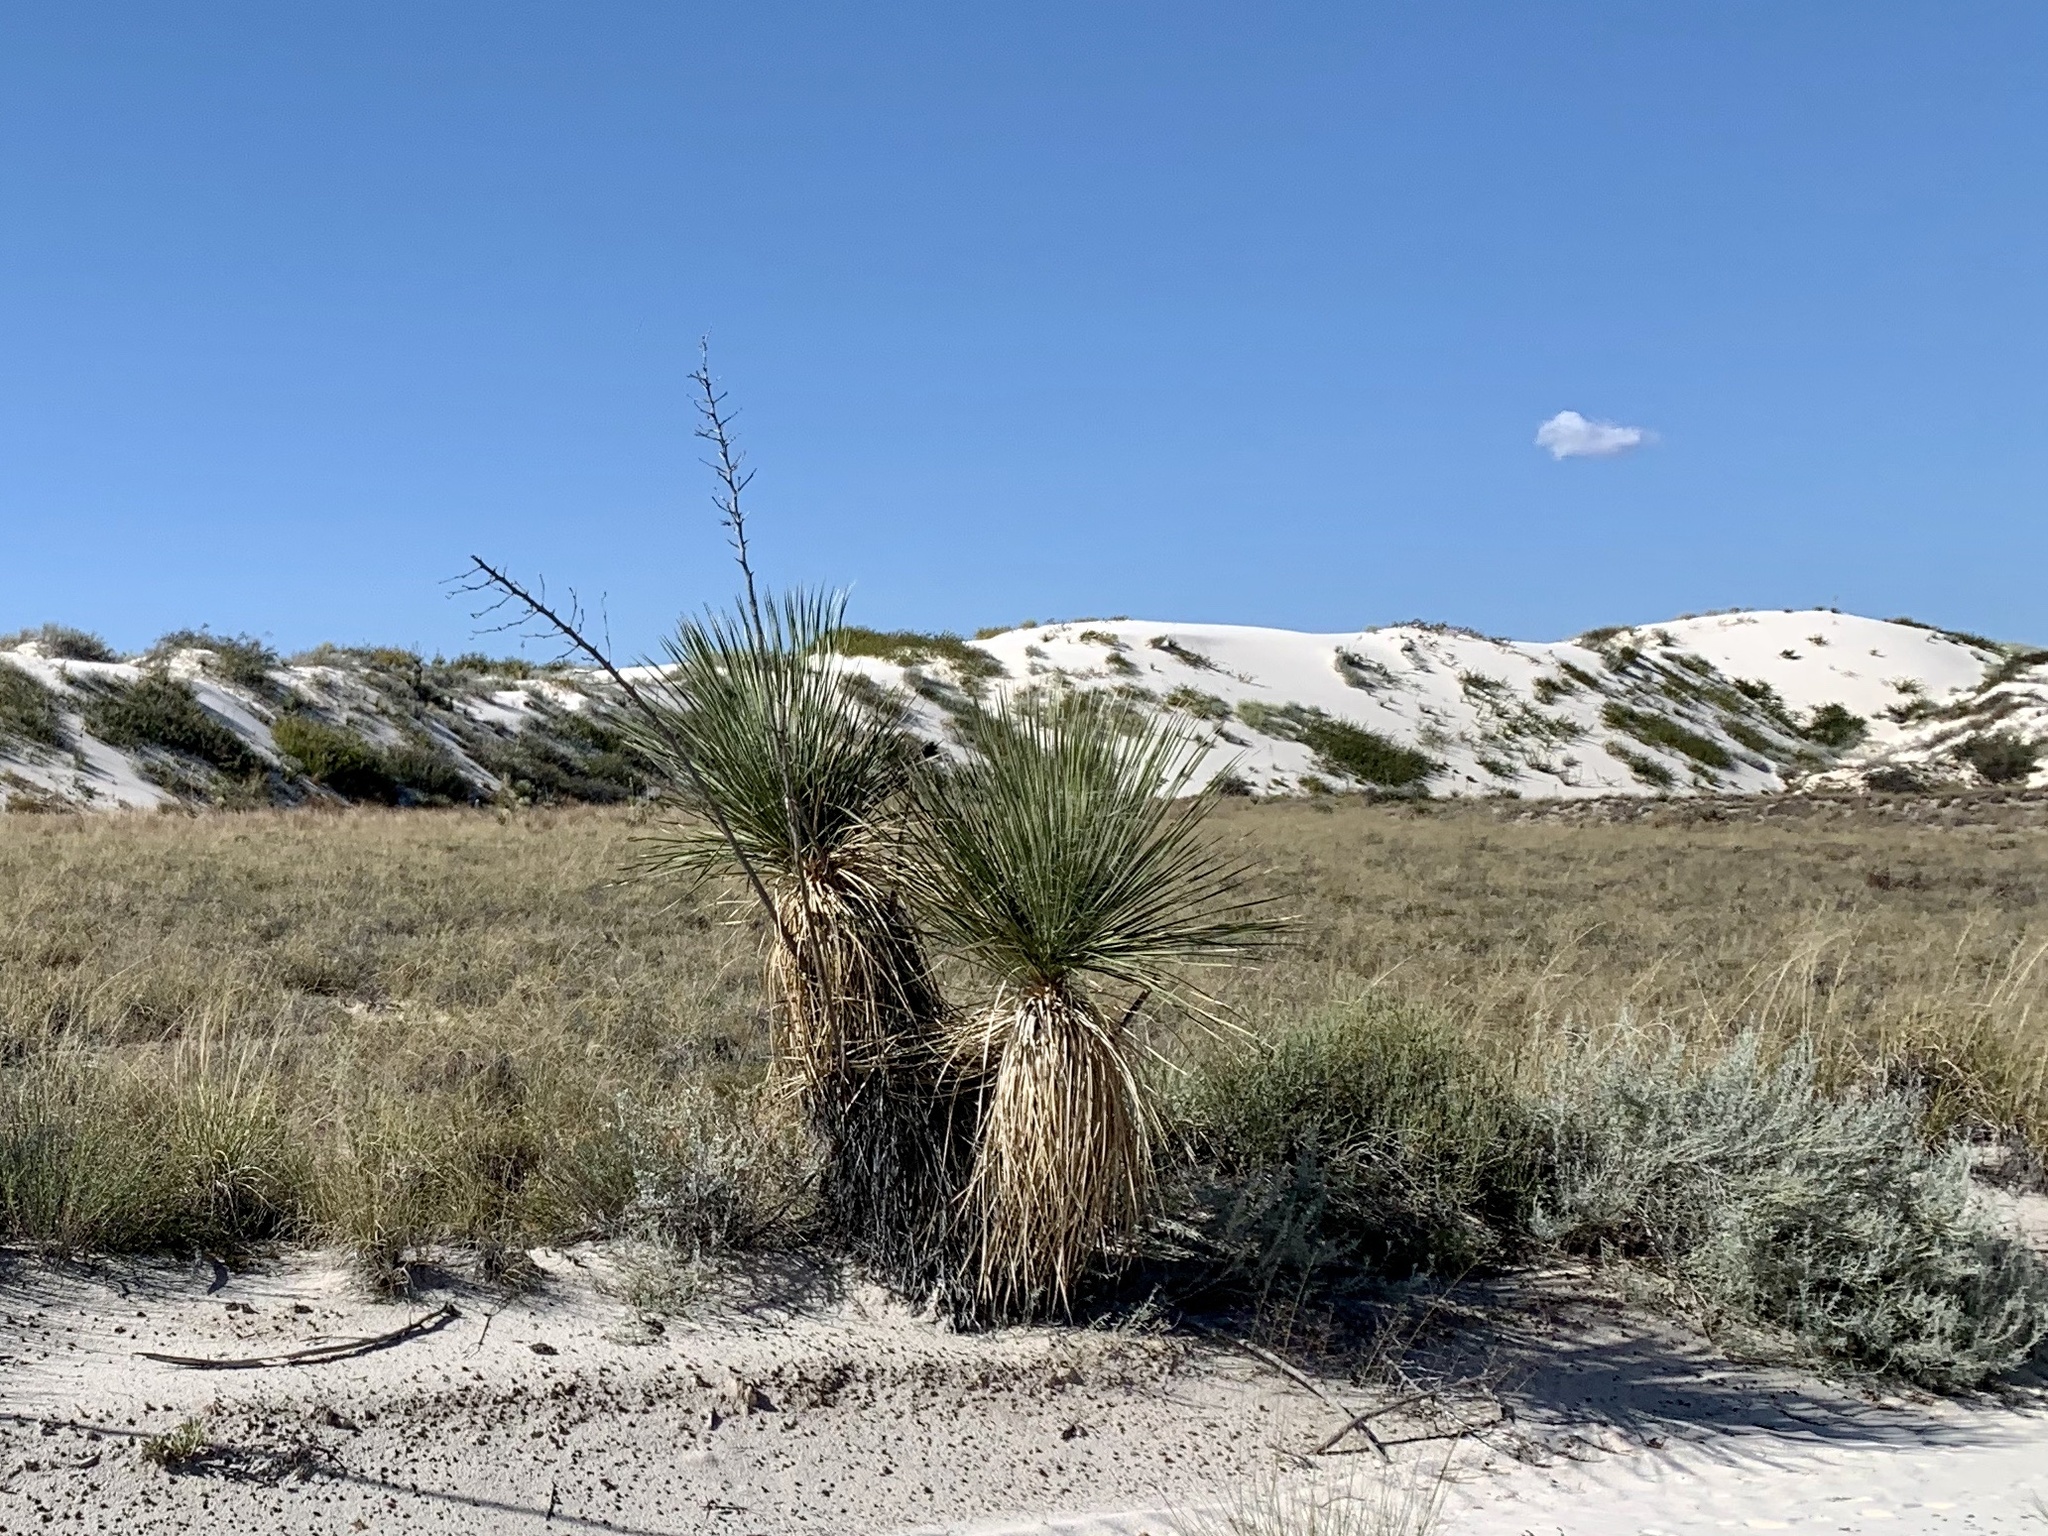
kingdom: Plantae
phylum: Tracheophyta
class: Liliopsida
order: Asparagales
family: Asparagaceae
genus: Yucca
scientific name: Yucca elata
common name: Palmella
